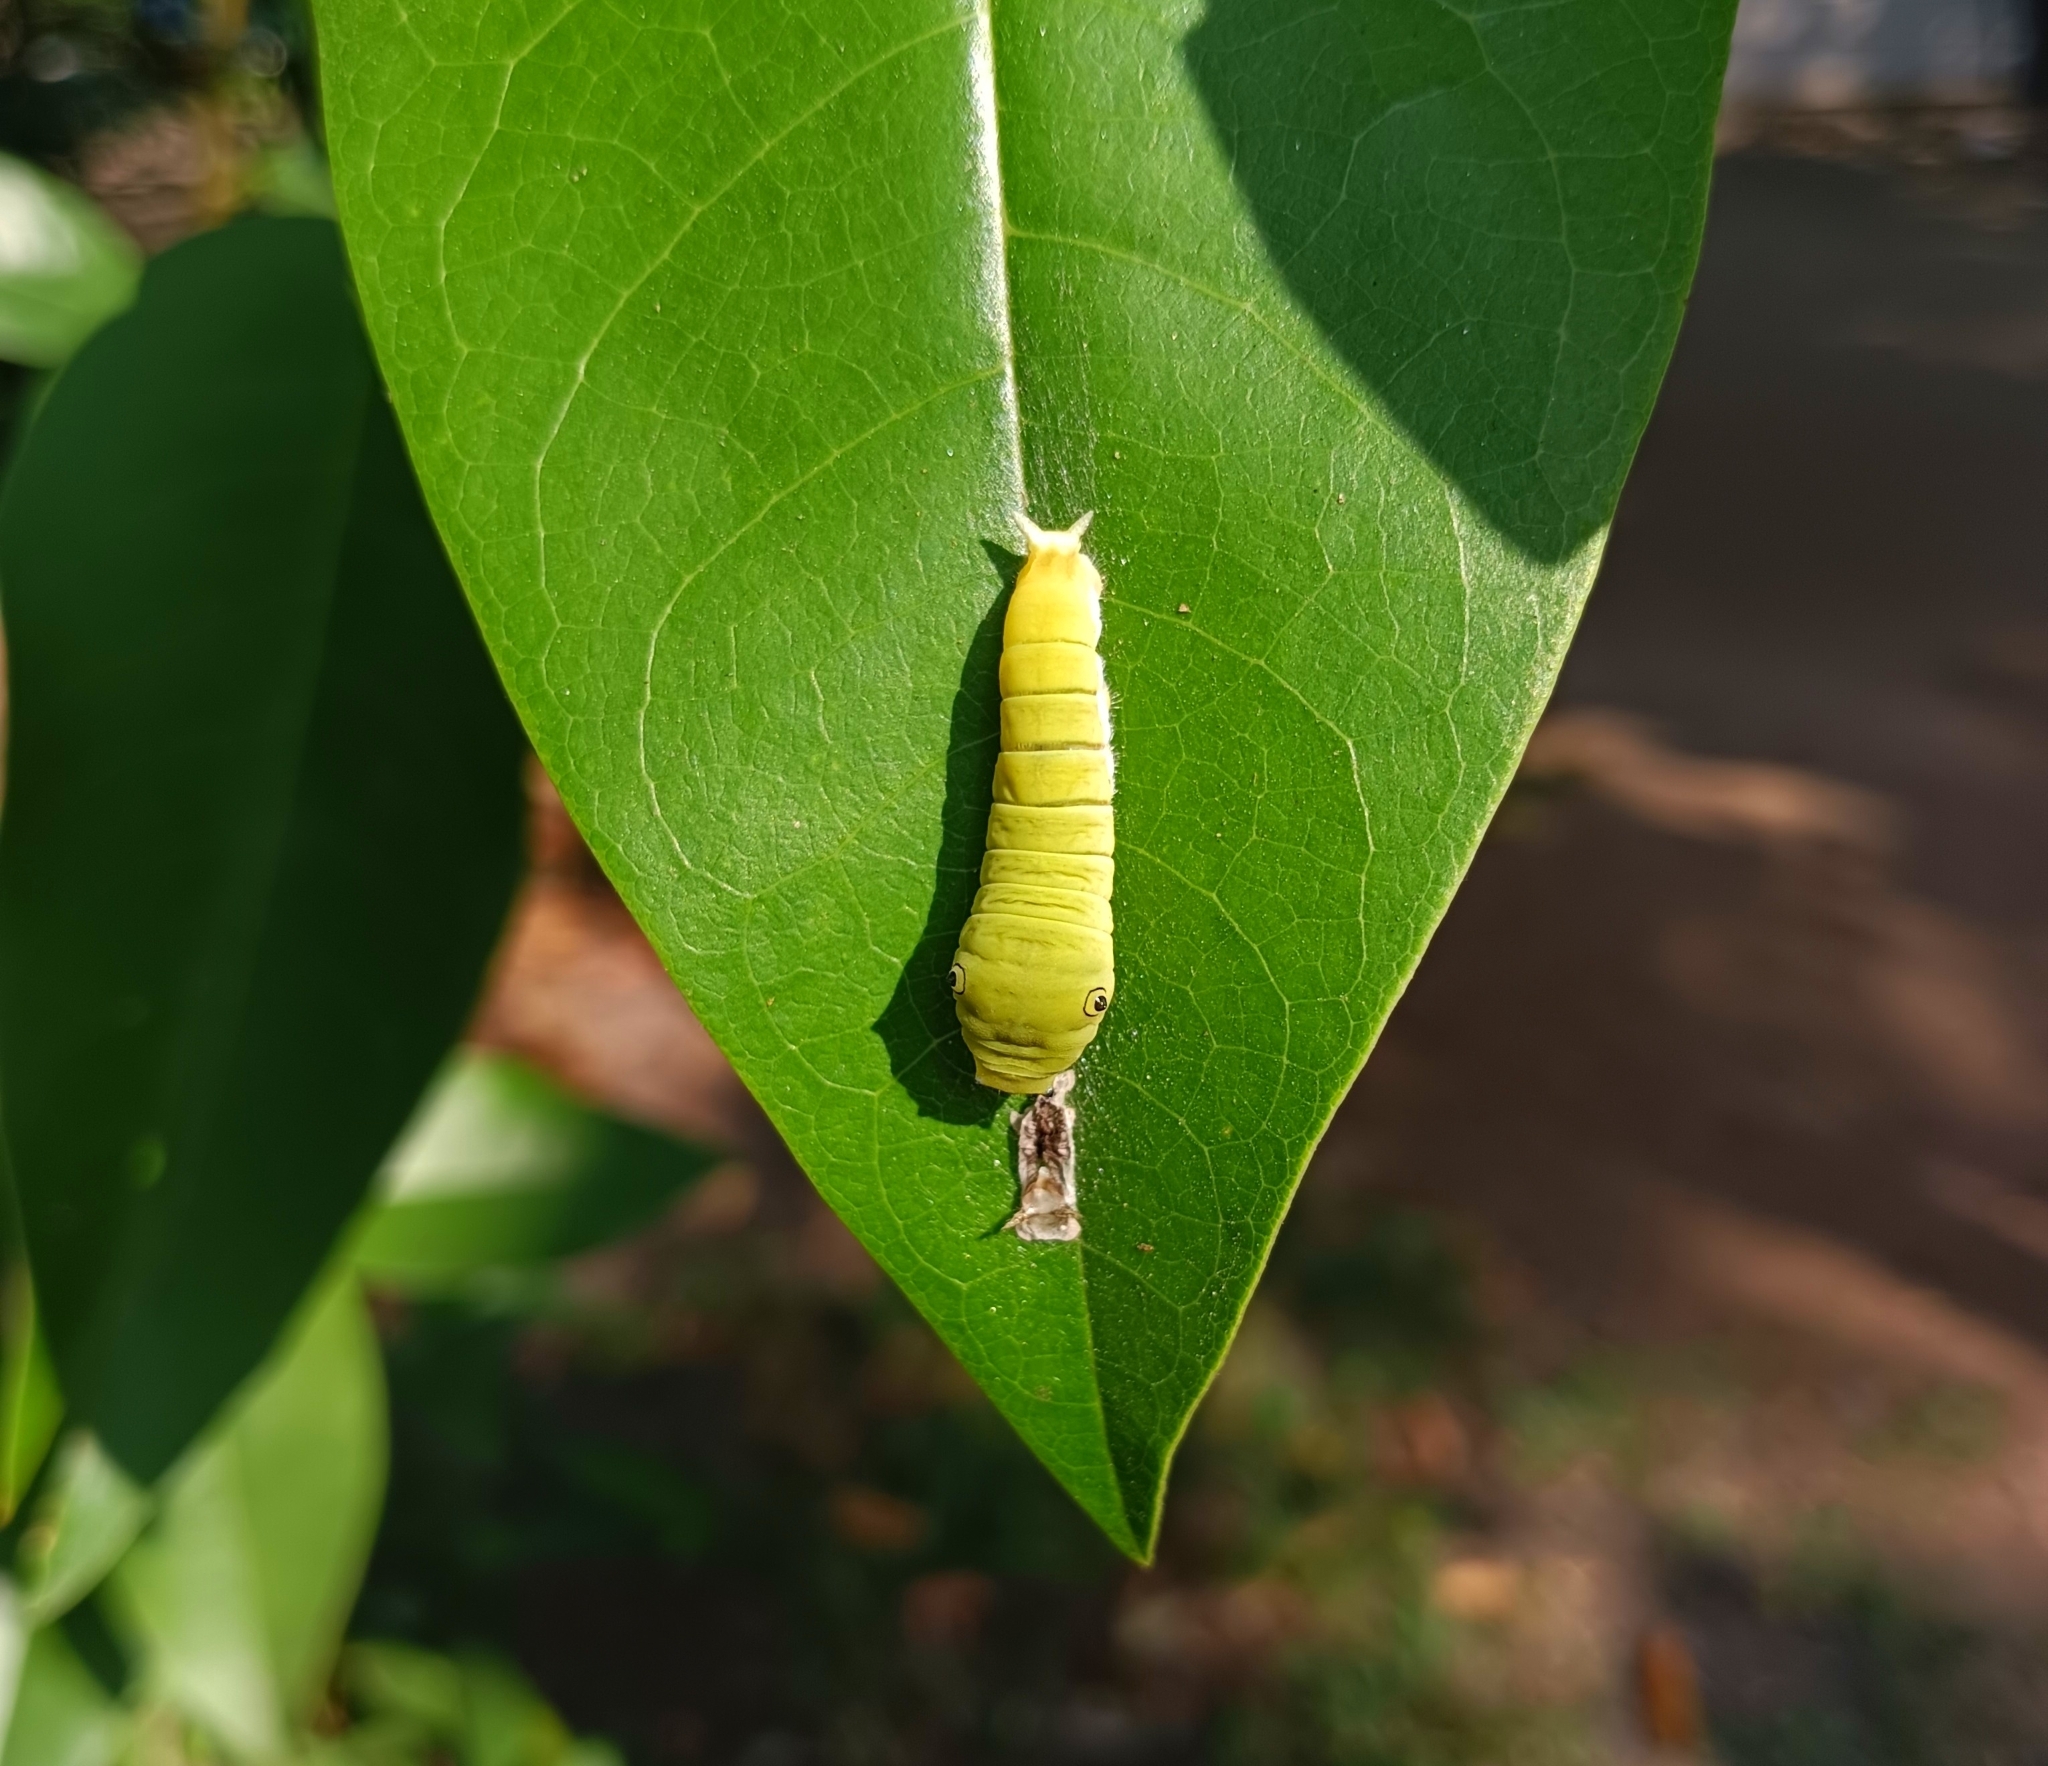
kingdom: Animalia
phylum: Arthropoda
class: Insecta
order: Lepidoptera
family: Papilionidae
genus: Graphium
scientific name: Graphium doson
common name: Common jay
